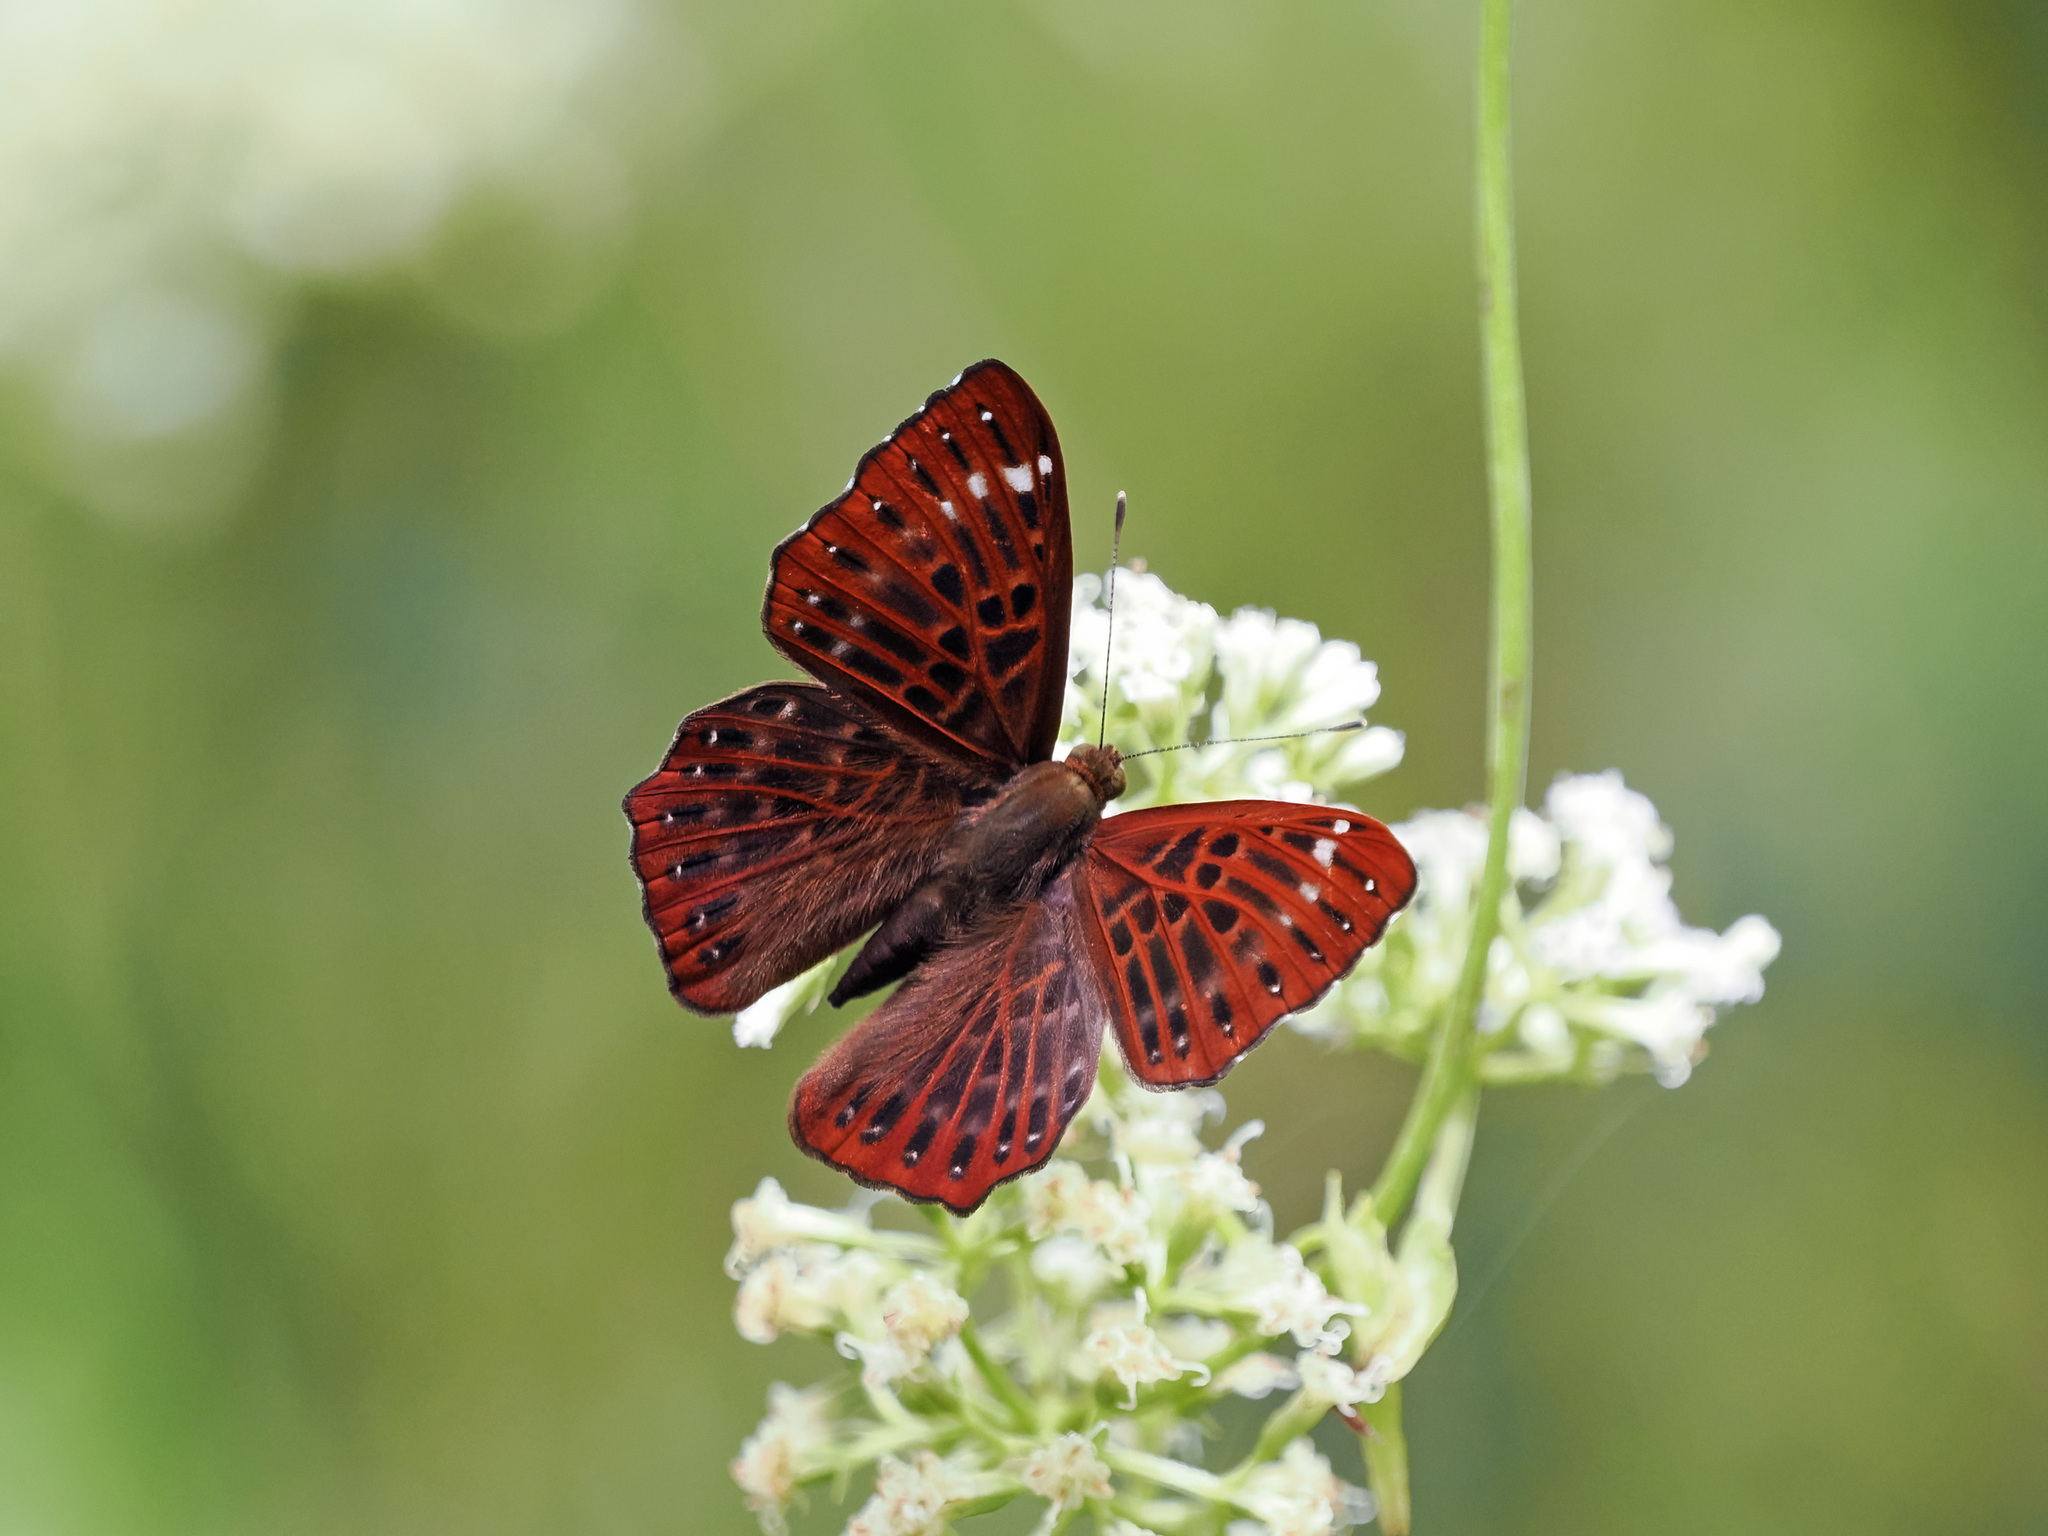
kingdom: Animalia
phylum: Arthropoda
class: Insecta
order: Lepidoptera
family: Riodinidae
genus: Zemeros
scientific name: Zemeros flegyas
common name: Punchinello
